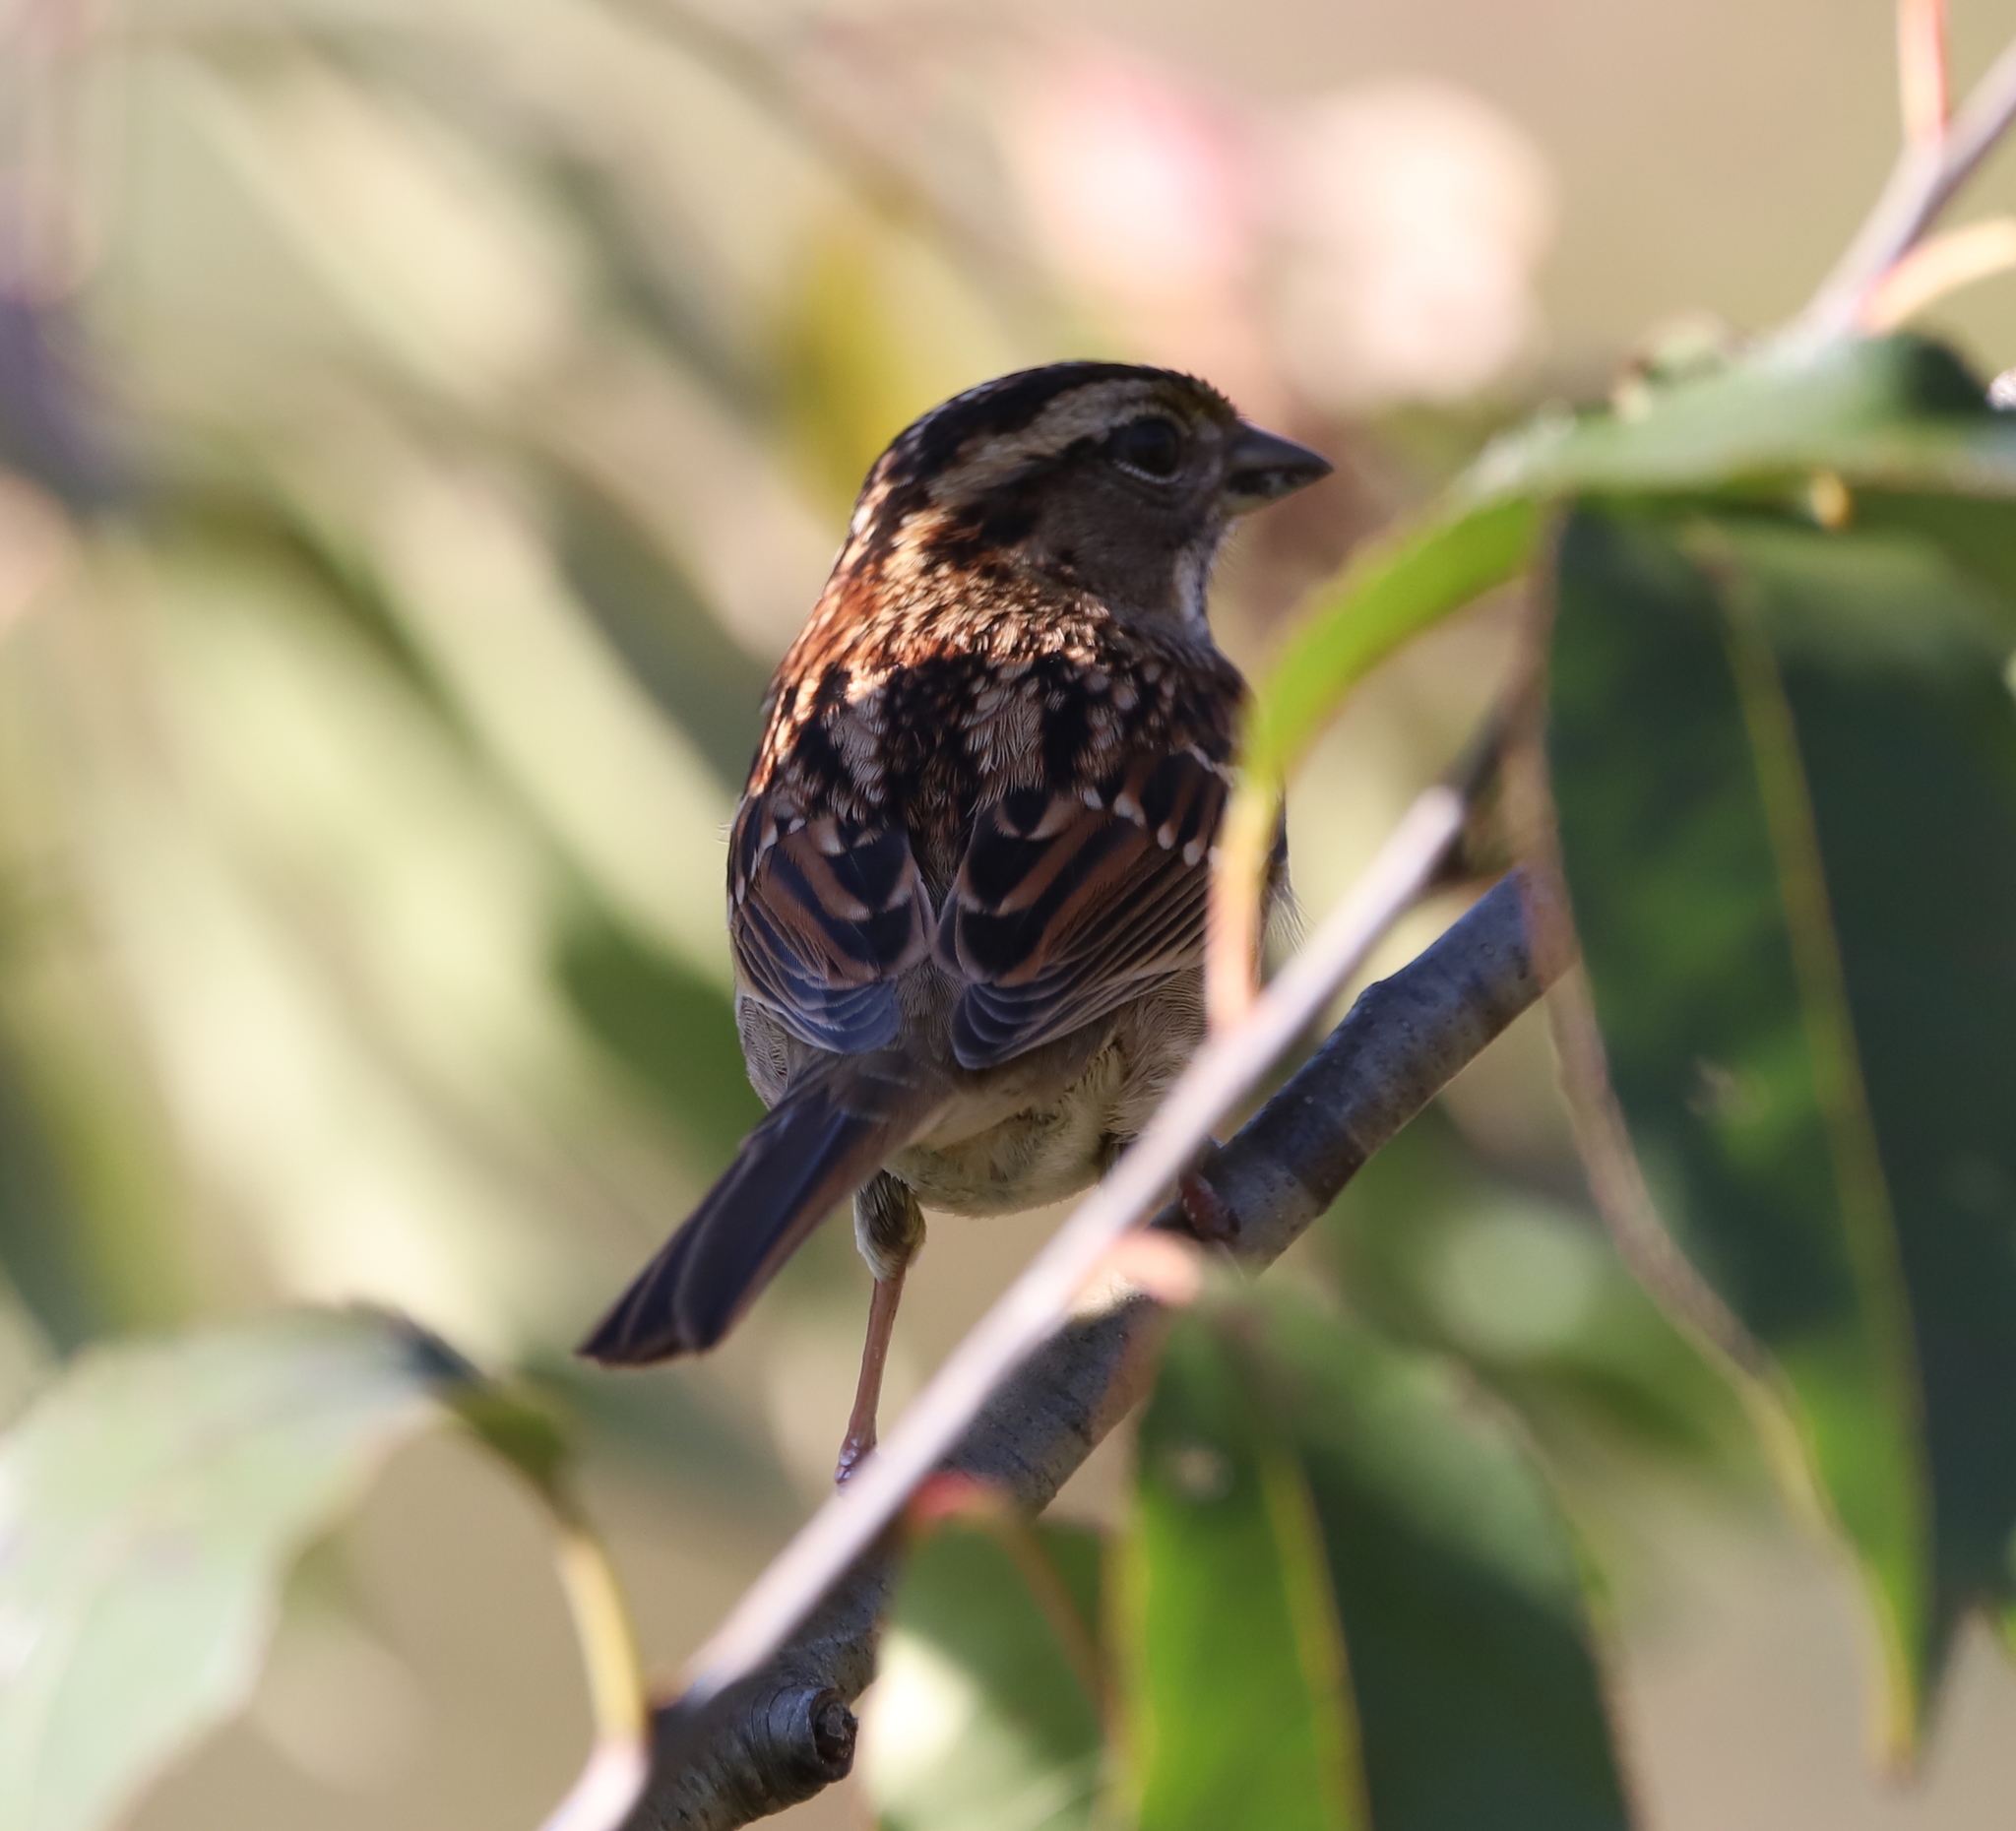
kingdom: Animalia
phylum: Chordata
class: Aves
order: Passeriformes
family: Passerellidae
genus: Zonotrichia
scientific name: Zonotrichia albicollis
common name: White-throated sparrow
